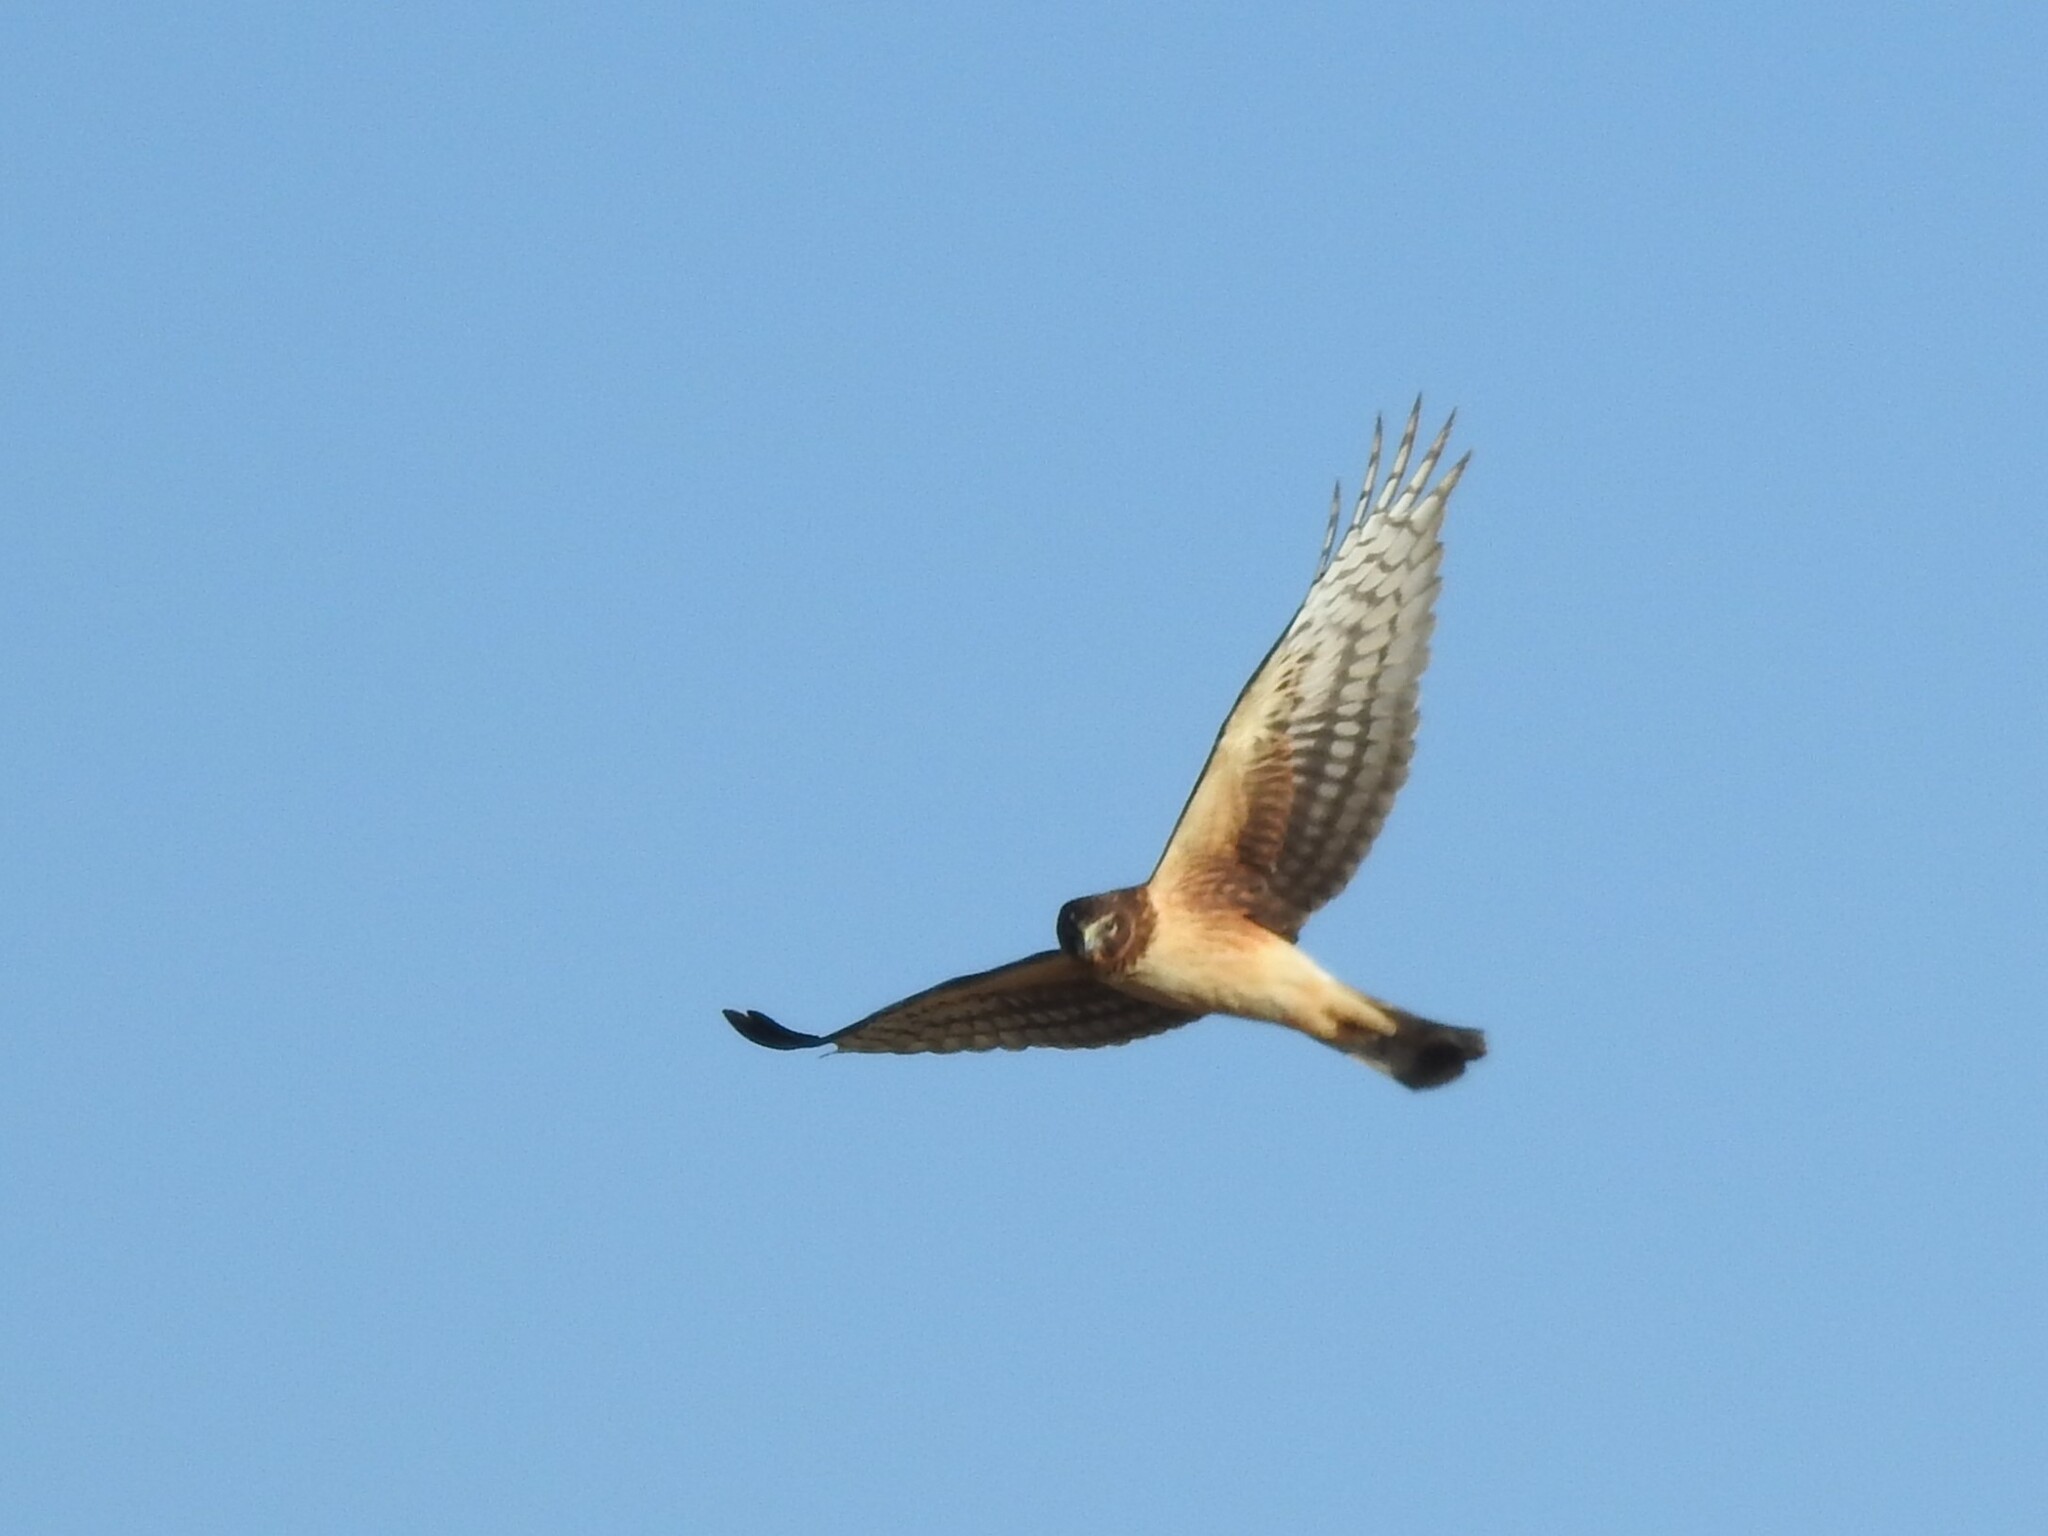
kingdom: Animalia
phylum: Chordata
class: Aves
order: Accipitriformes
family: Accipitridae
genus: Circus
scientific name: Circus cyaneus
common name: Hen harrier
